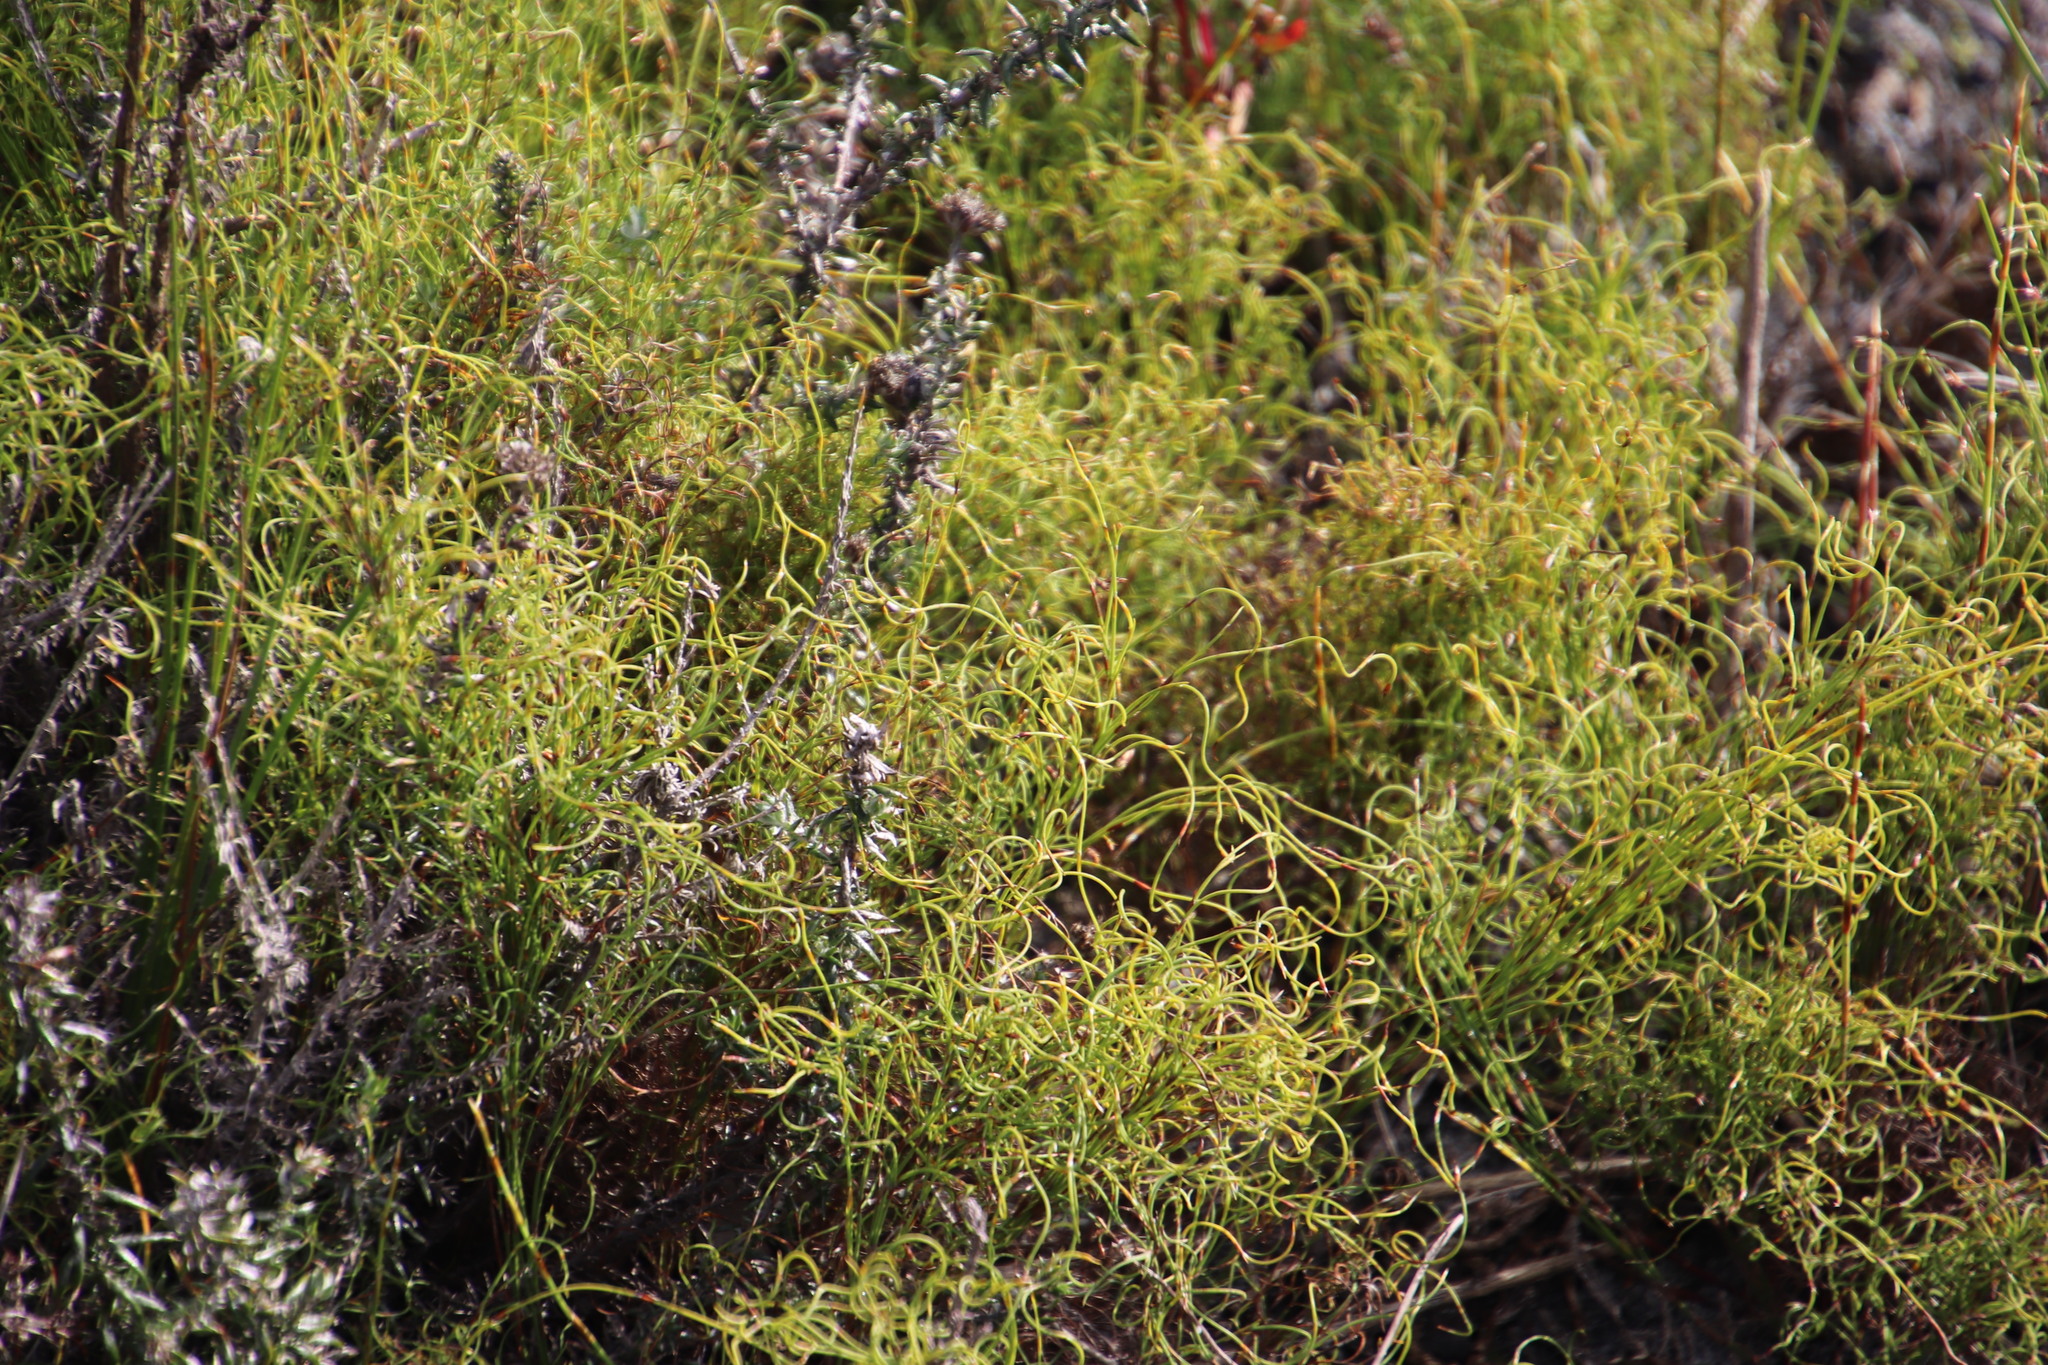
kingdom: Plantae
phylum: Tracheophyta
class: Liliopsida
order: Poales
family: Restionaceae
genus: Restio
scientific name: Restio cincinnatus
